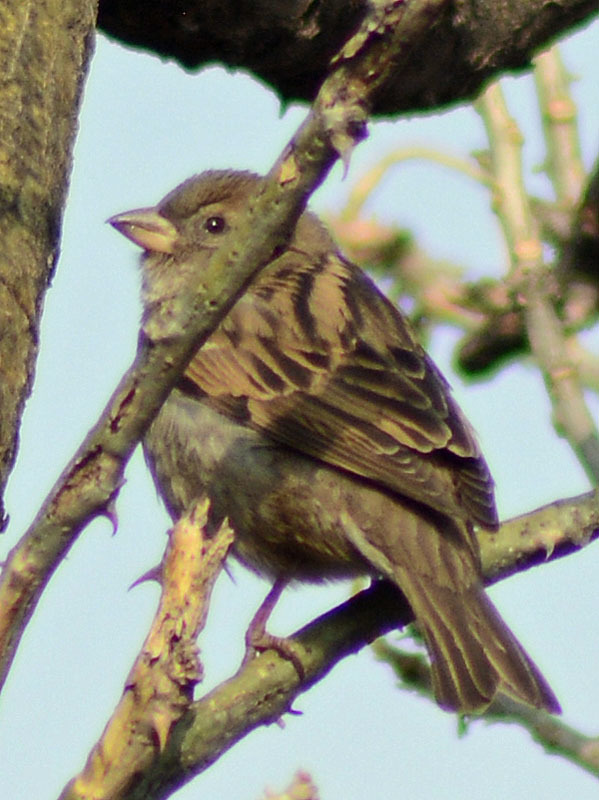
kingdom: Animalia
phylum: Chordata
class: Aves
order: Passeriformes
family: Passeridae
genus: Passer
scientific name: Passer domesticus
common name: House sparrow
